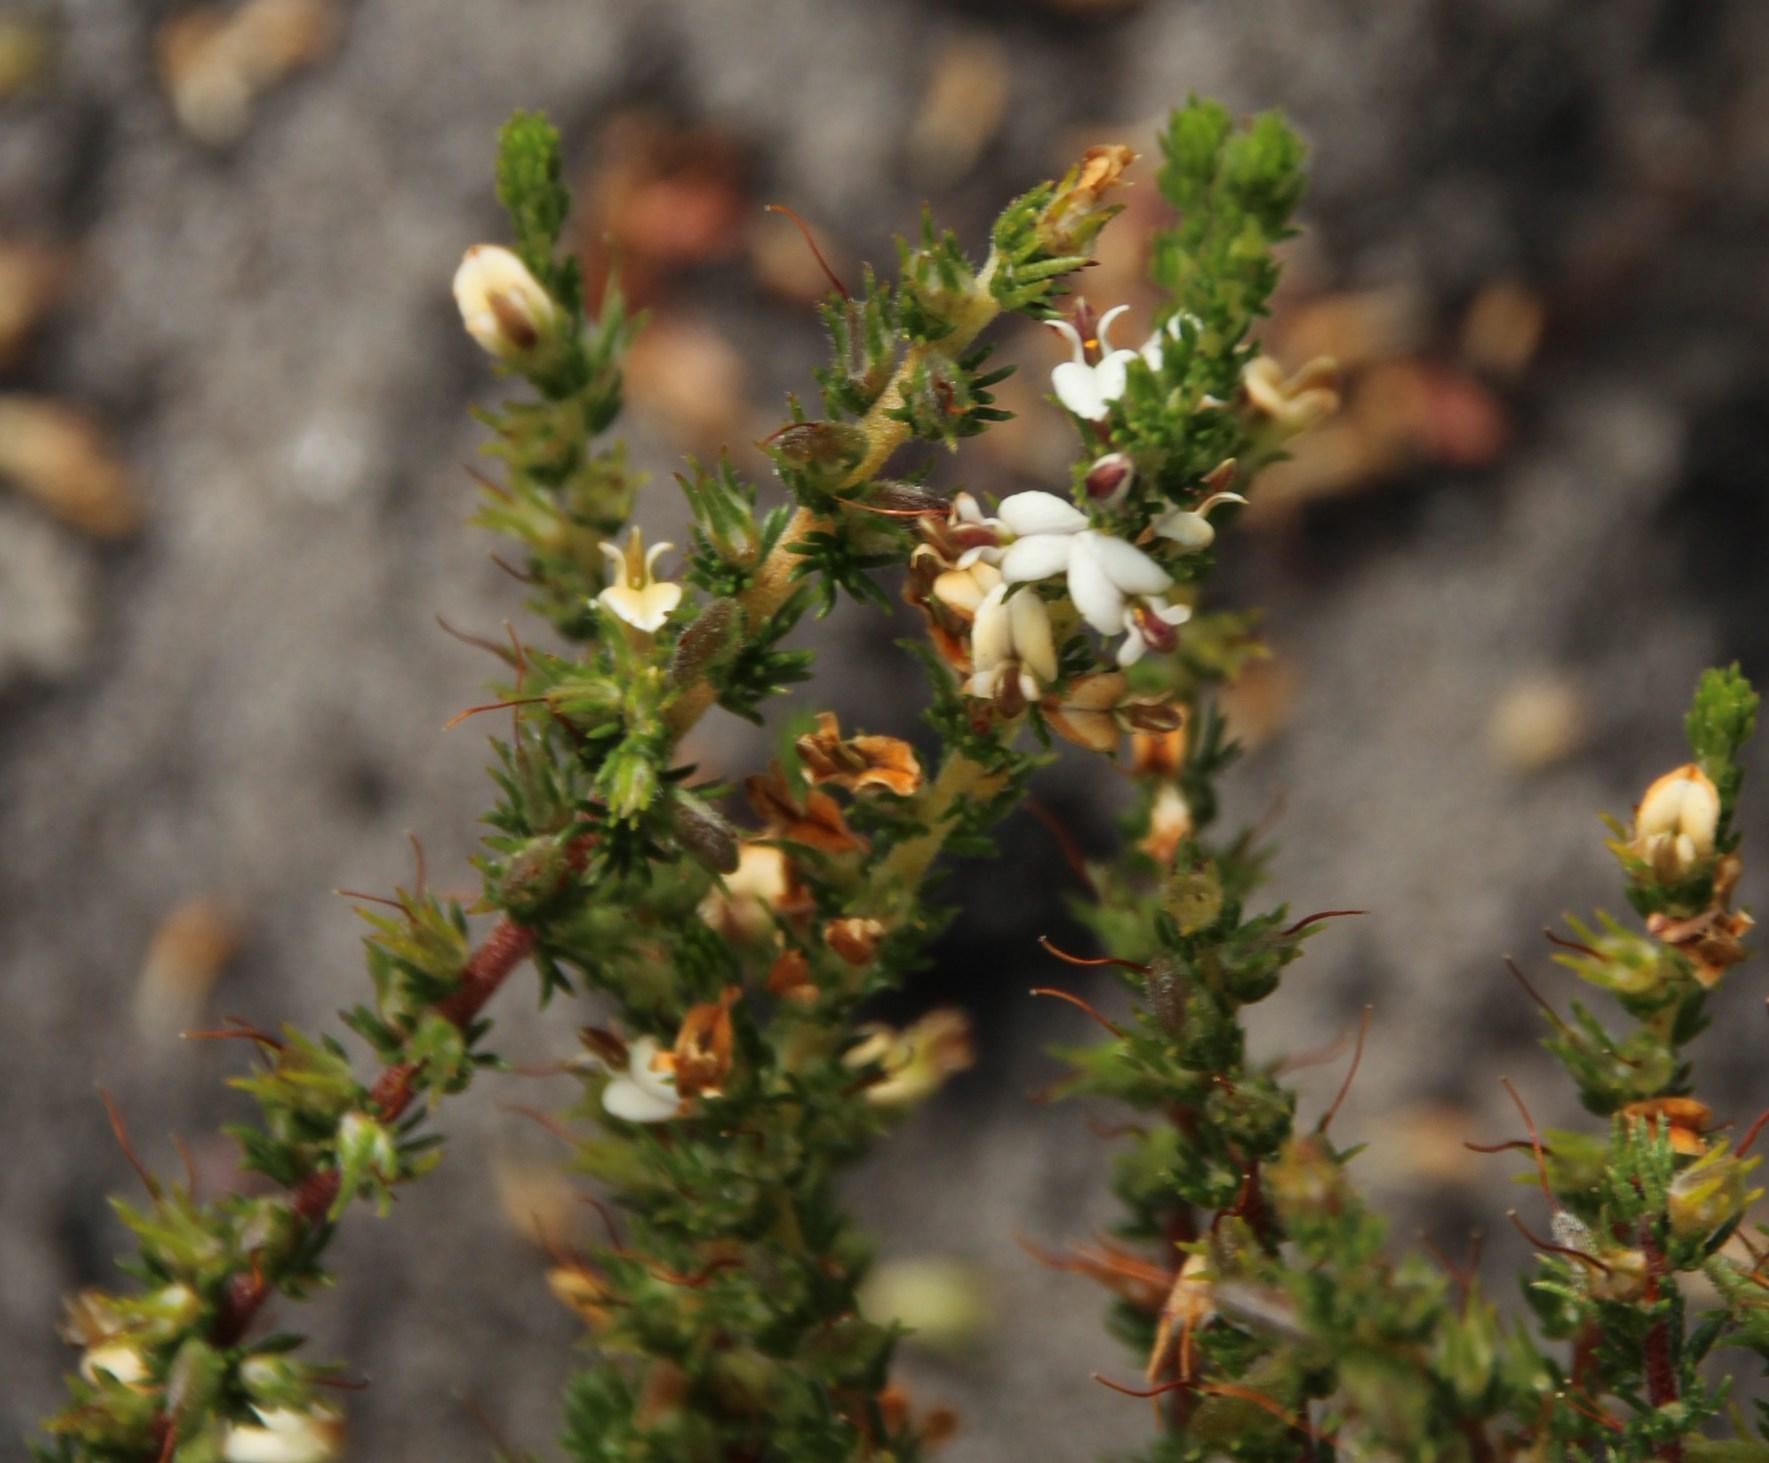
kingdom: Plantae
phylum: Tracheophyta
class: Magnoliopsida
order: Fabales
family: Fabaceae
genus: Aspalathus
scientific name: Aspalathus hispida
